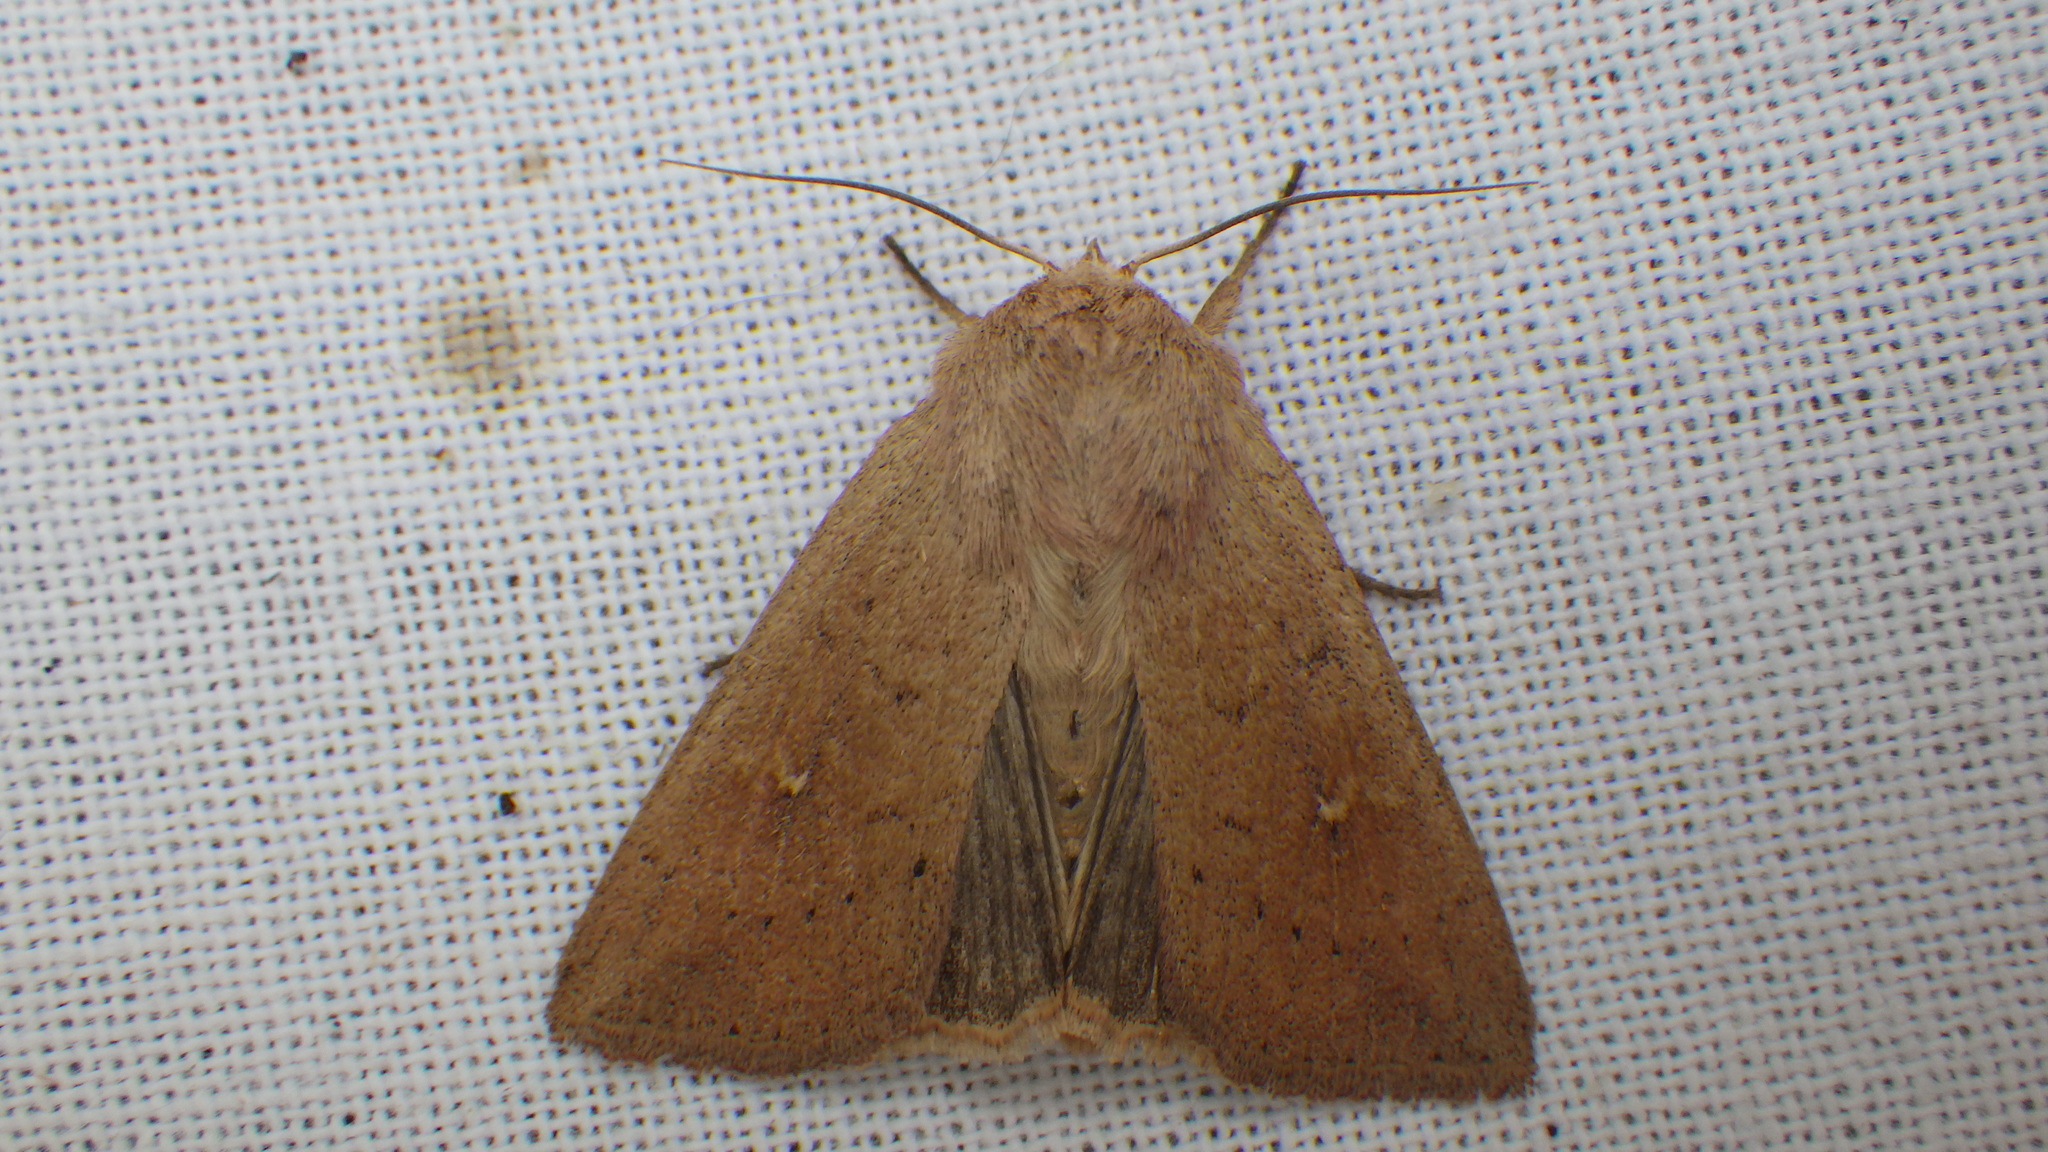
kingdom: Animalia
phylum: Arthropoda
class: Insecta
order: Lepidoptera
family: Noctuidae
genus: Mythimna
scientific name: Mythimna ferrago
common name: Clay
